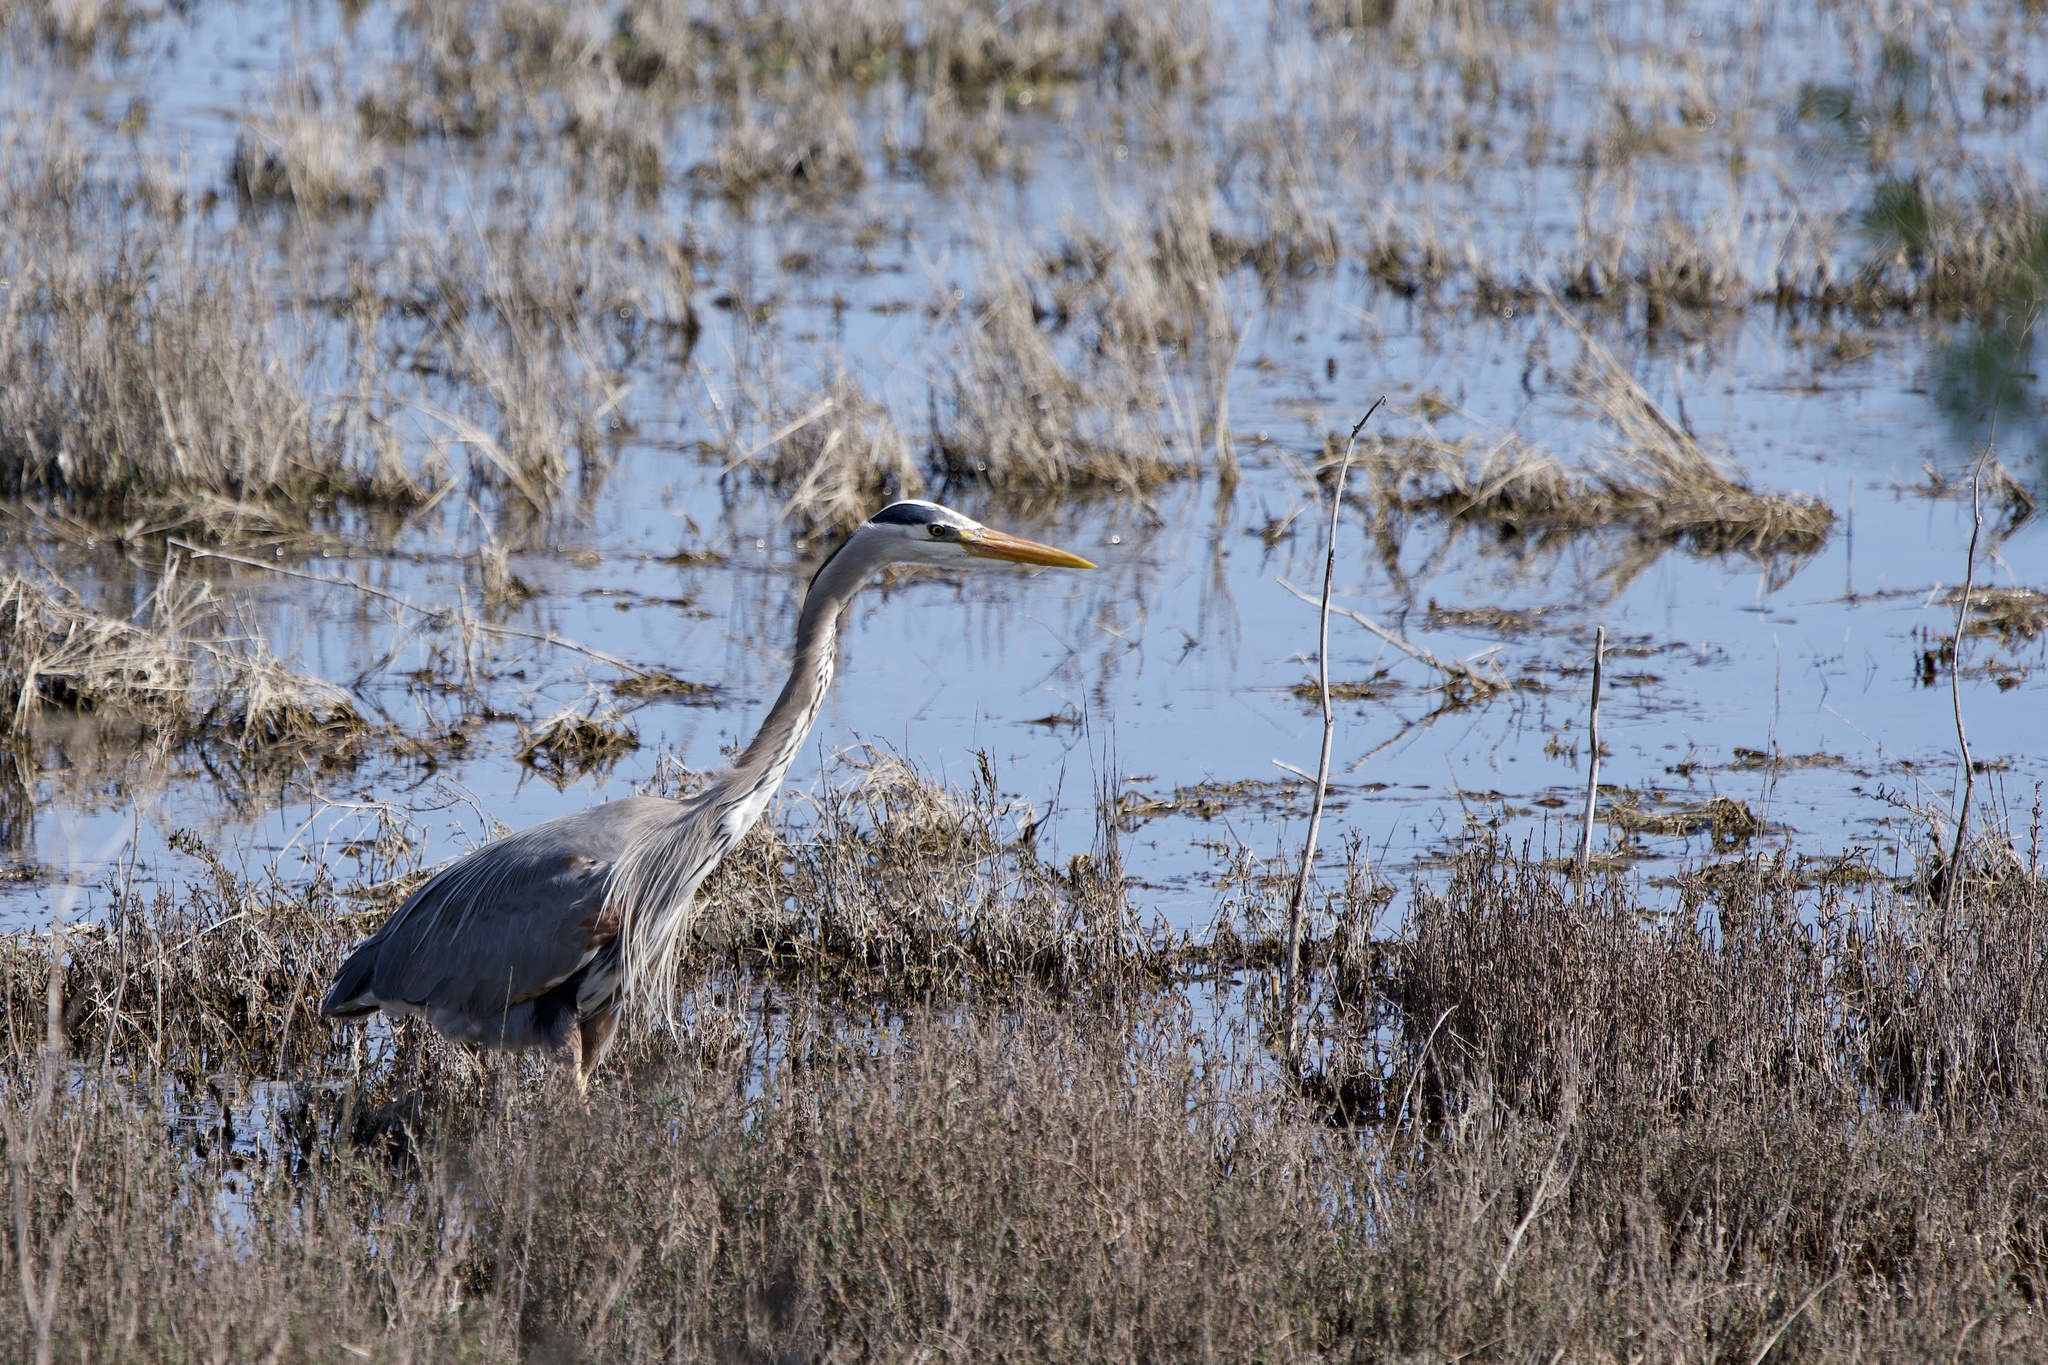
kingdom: Animalia
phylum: Chordata
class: Aves
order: Pelecaniformes
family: Ardeidae
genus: Ardea
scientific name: Ardea herodias
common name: Great blue heron
